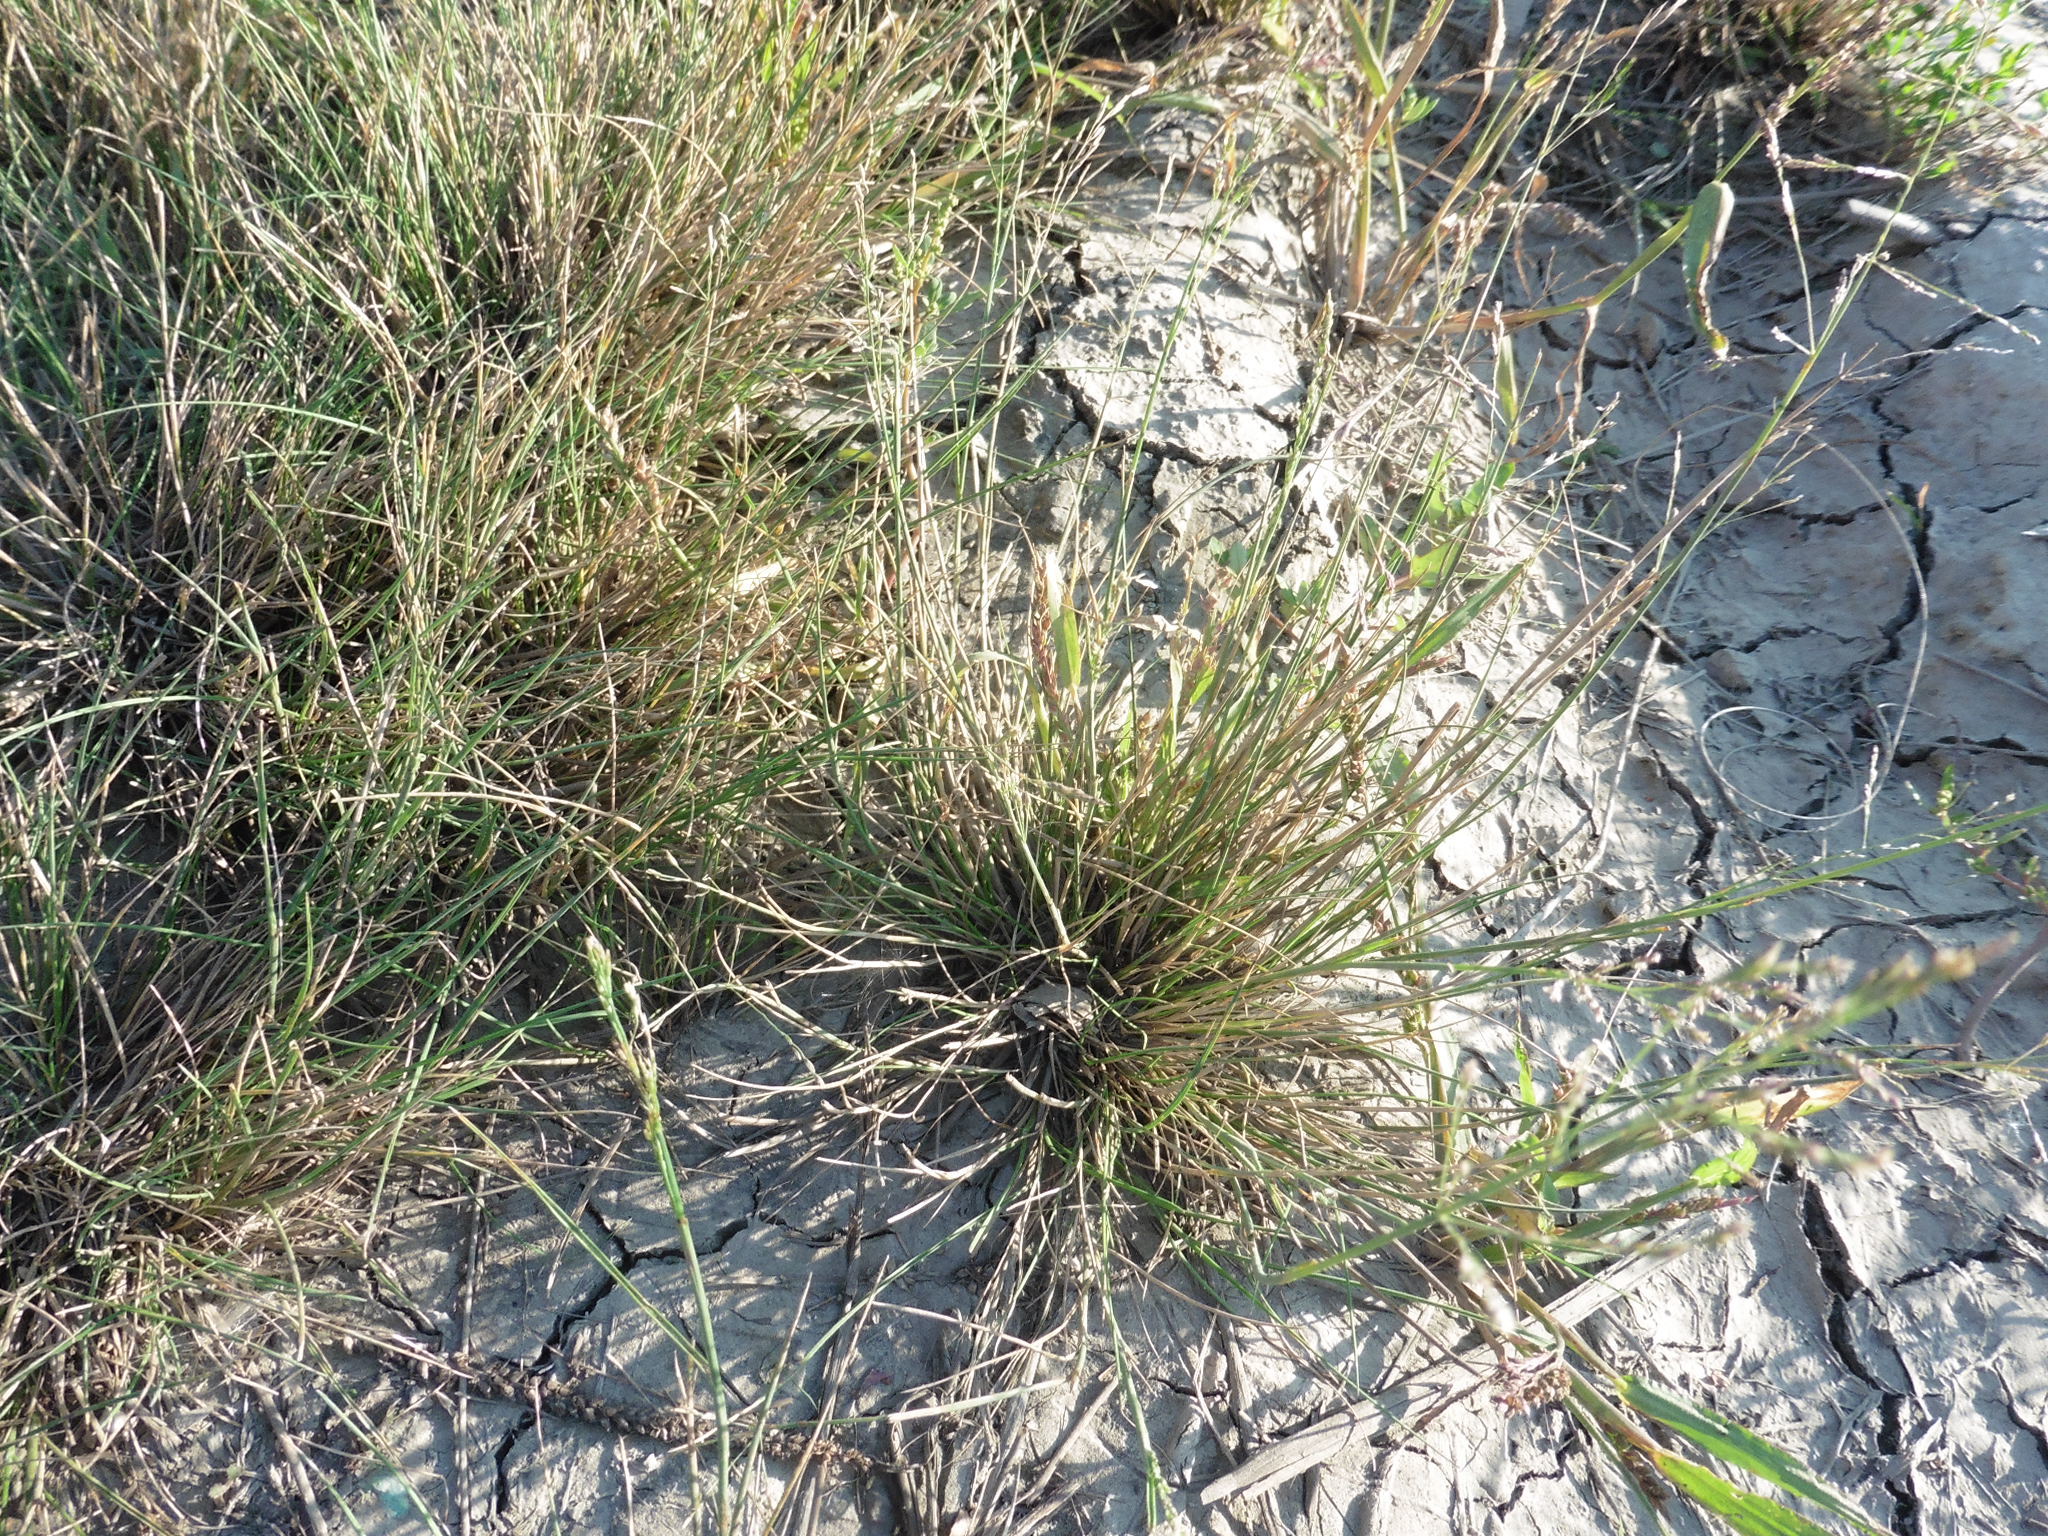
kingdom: Plantae
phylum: Tracheophyta
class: Liliopsida
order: Poales
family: Poaceae
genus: Puccinellia
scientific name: Puccinellia distans
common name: Weeping alkaligrass
